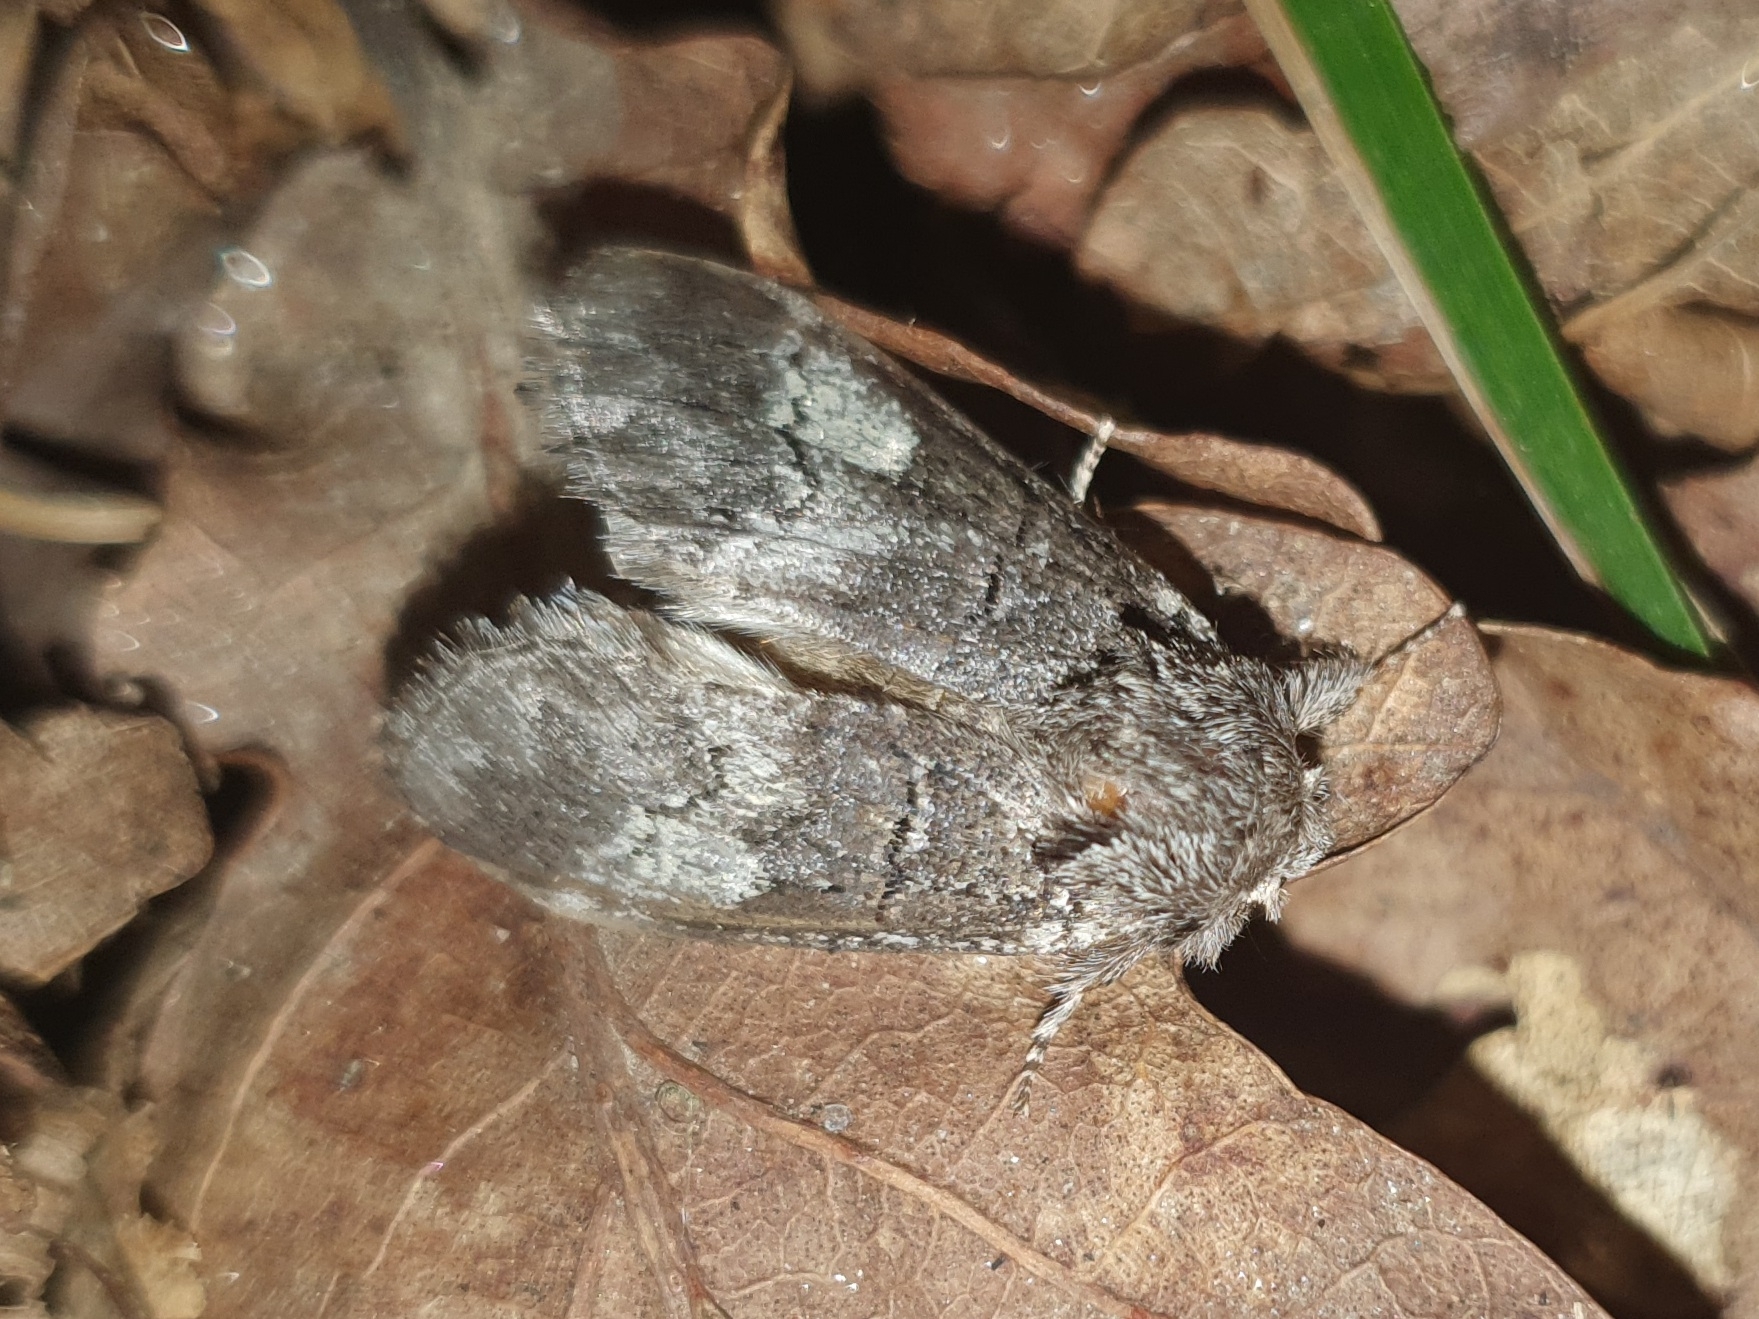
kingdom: Animalia
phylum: Arthropoda
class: Insecta
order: Lepidoptera
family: Notodontidae
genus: Drymonia
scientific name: Drymonia querna
